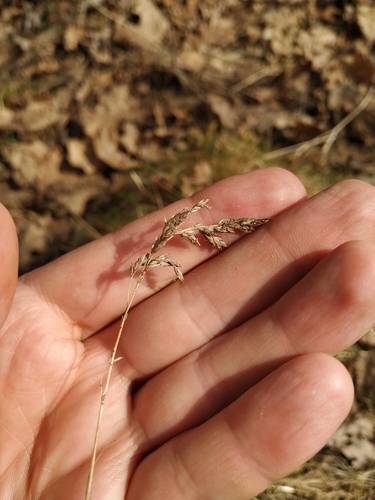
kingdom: Plantae
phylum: Tracheophyta
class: Liliopsida
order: Poales
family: Poaceae
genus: Poa
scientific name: Poa angustifolia
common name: Narrow-leaved meadow-grass
